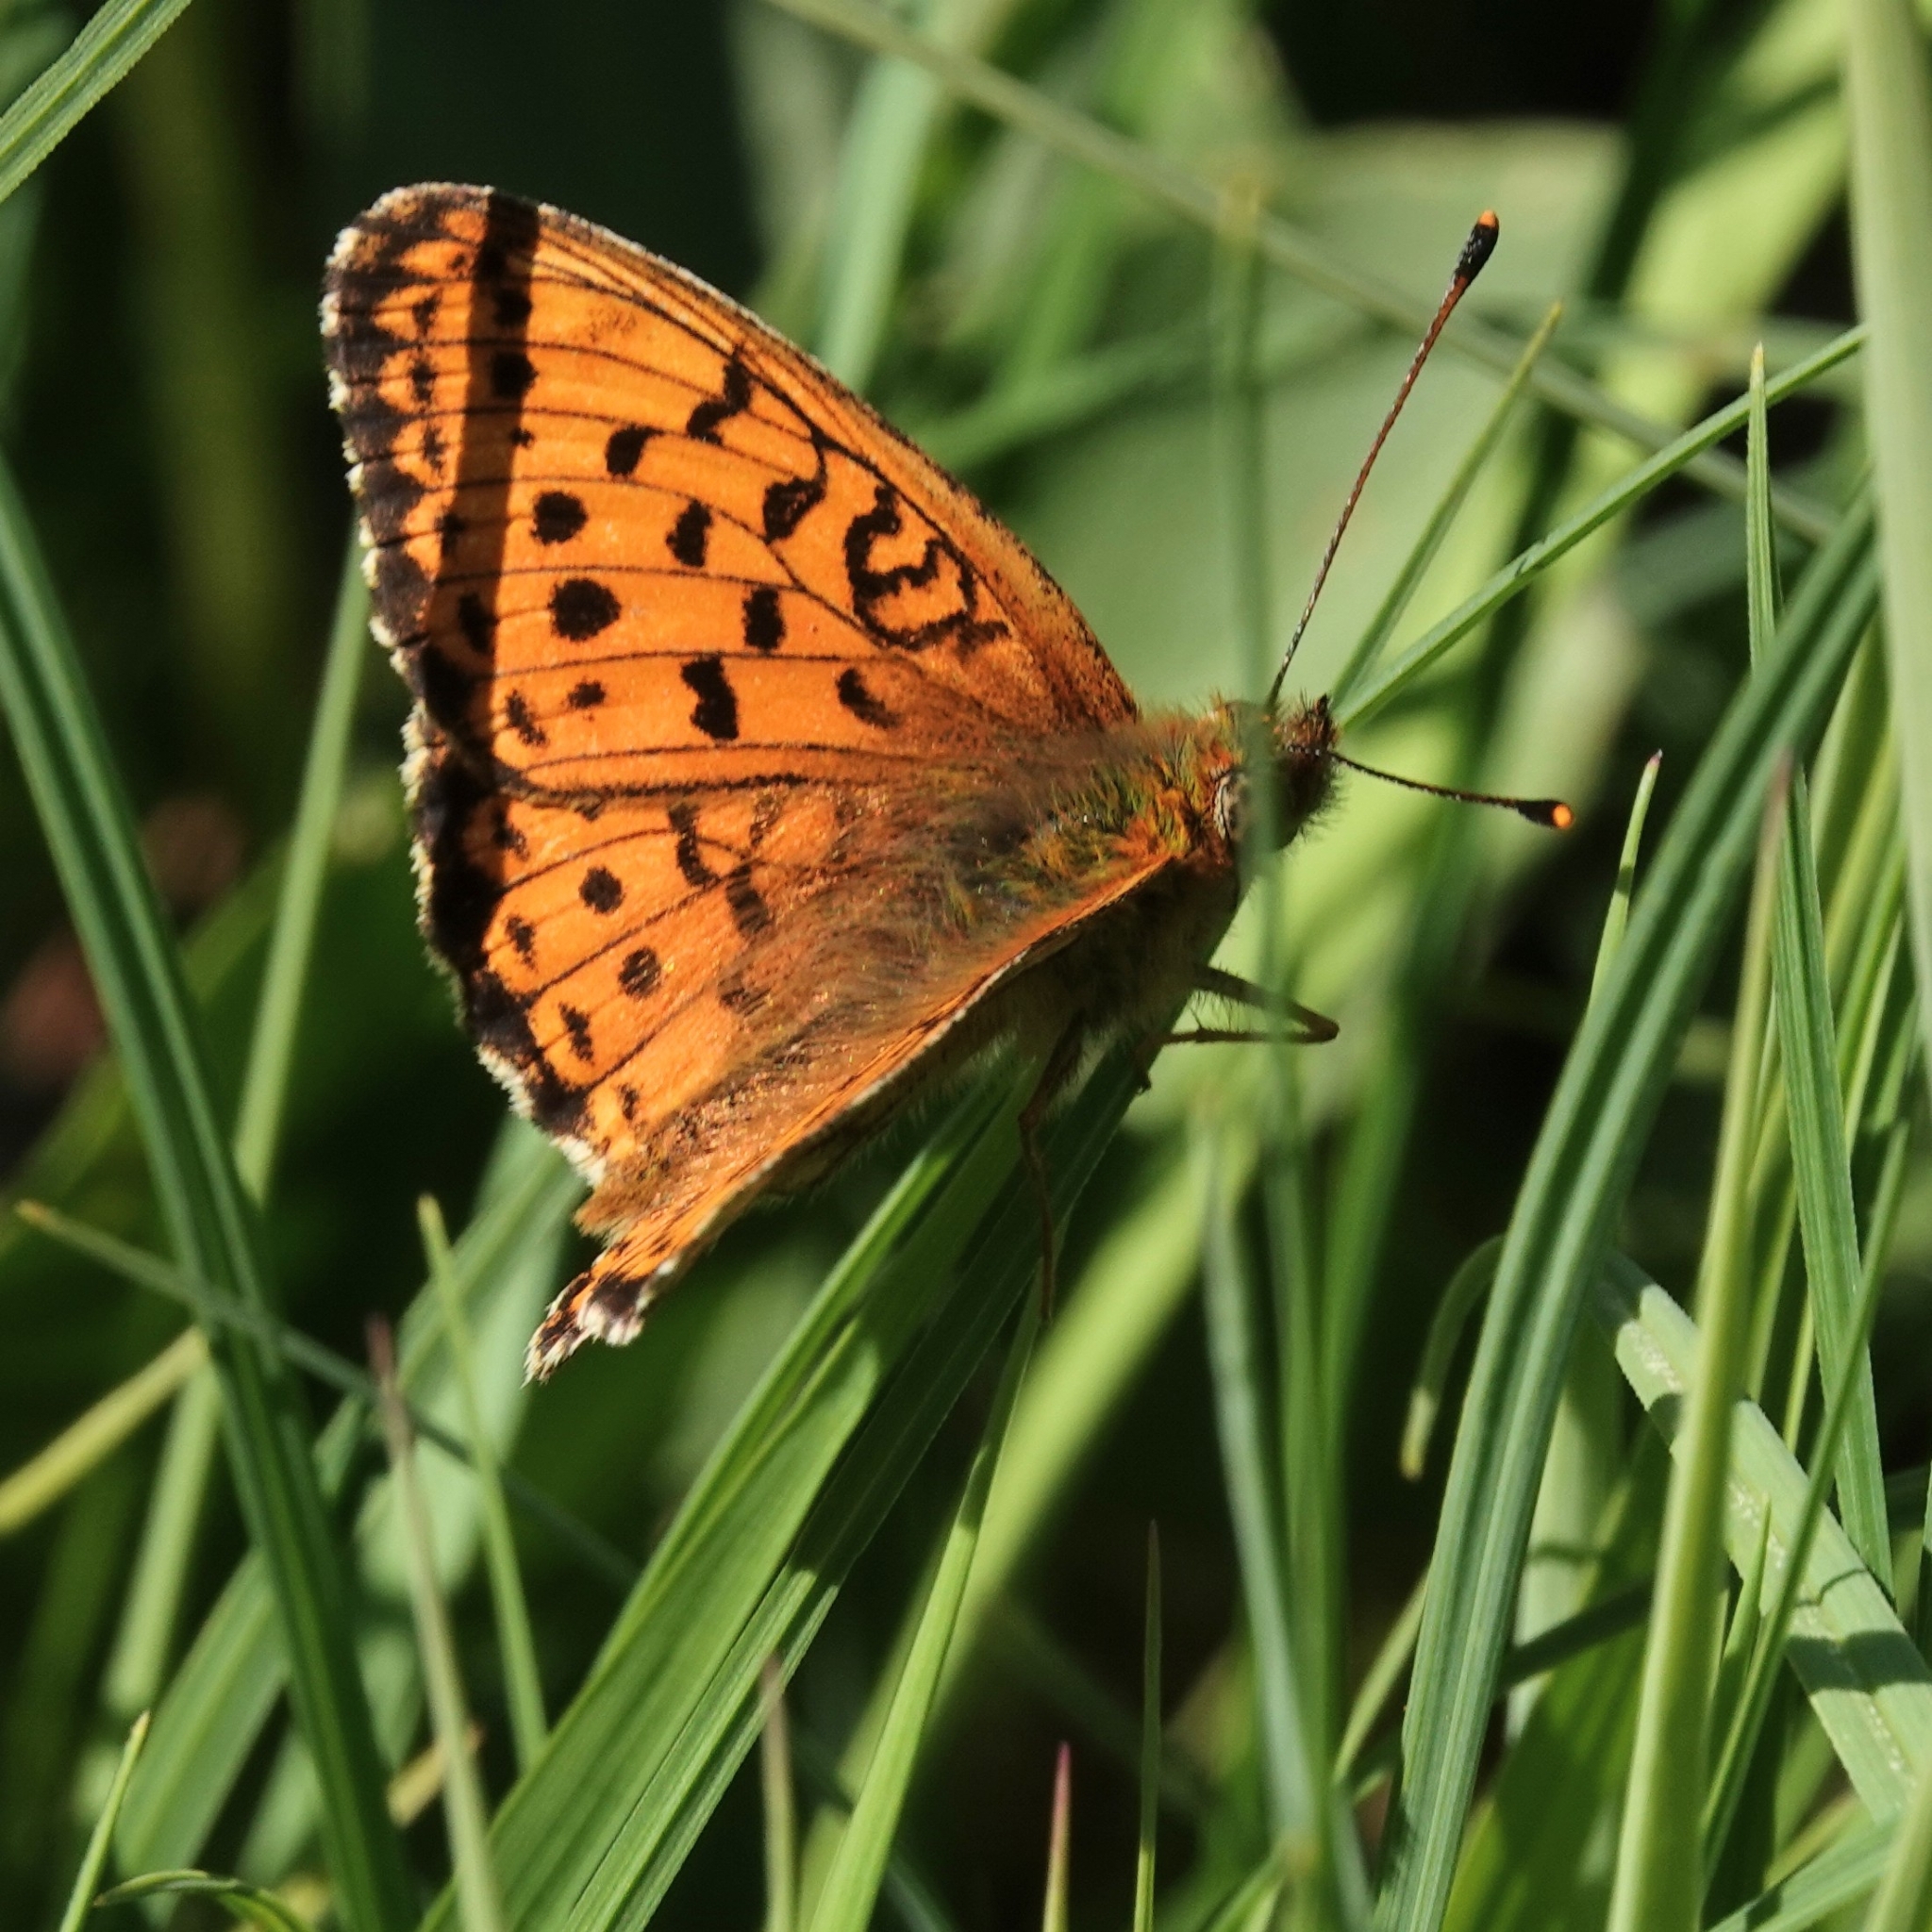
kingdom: Animalia
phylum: Arthropoda
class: Insecta
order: Lepidoptera
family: Nymphalidae
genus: Brenthis
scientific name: Brenthis ino
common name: Lesser marbled fritillary
